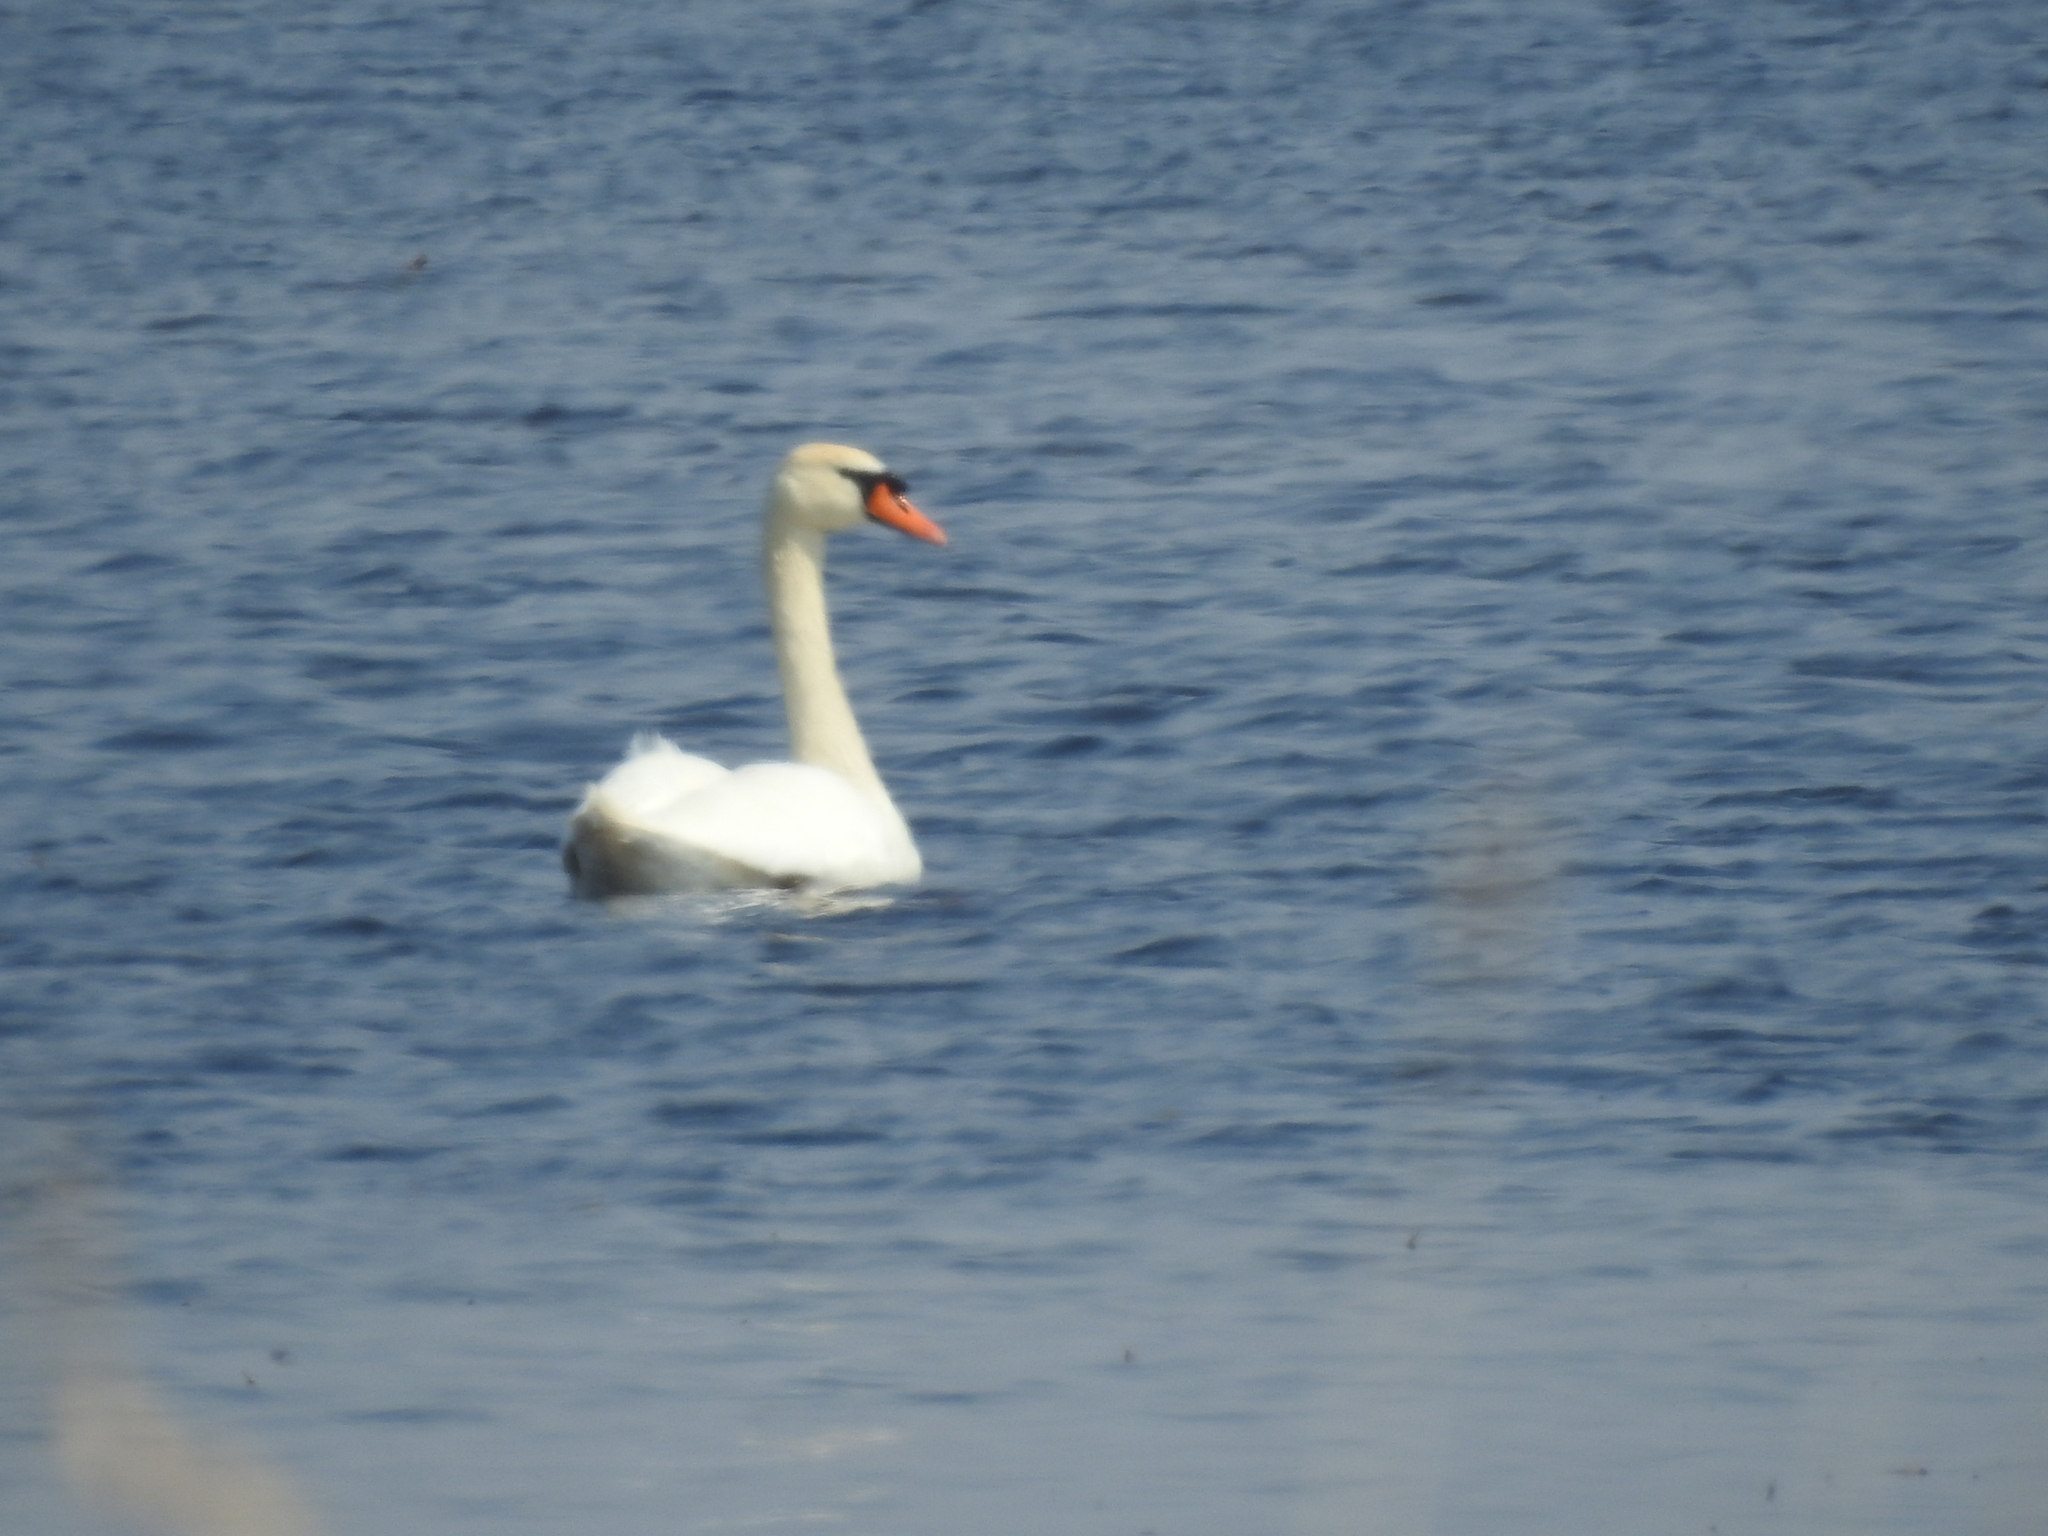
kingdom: Animalia
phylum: Chordata
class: Aves
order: Anseriformes
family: Anatidae
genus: Cygnus
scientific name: Cygnus olor
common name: Mute swan
